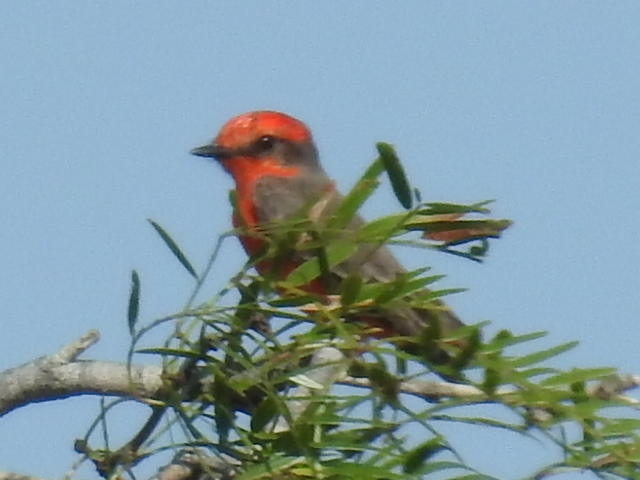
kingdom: Animalia
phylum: Chordata
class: Aves
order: Passeriformes
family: Tyrannidae
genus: Pyrocephalus
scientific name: Pyrocephalus rubinus
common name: Vermilion flycatcher
